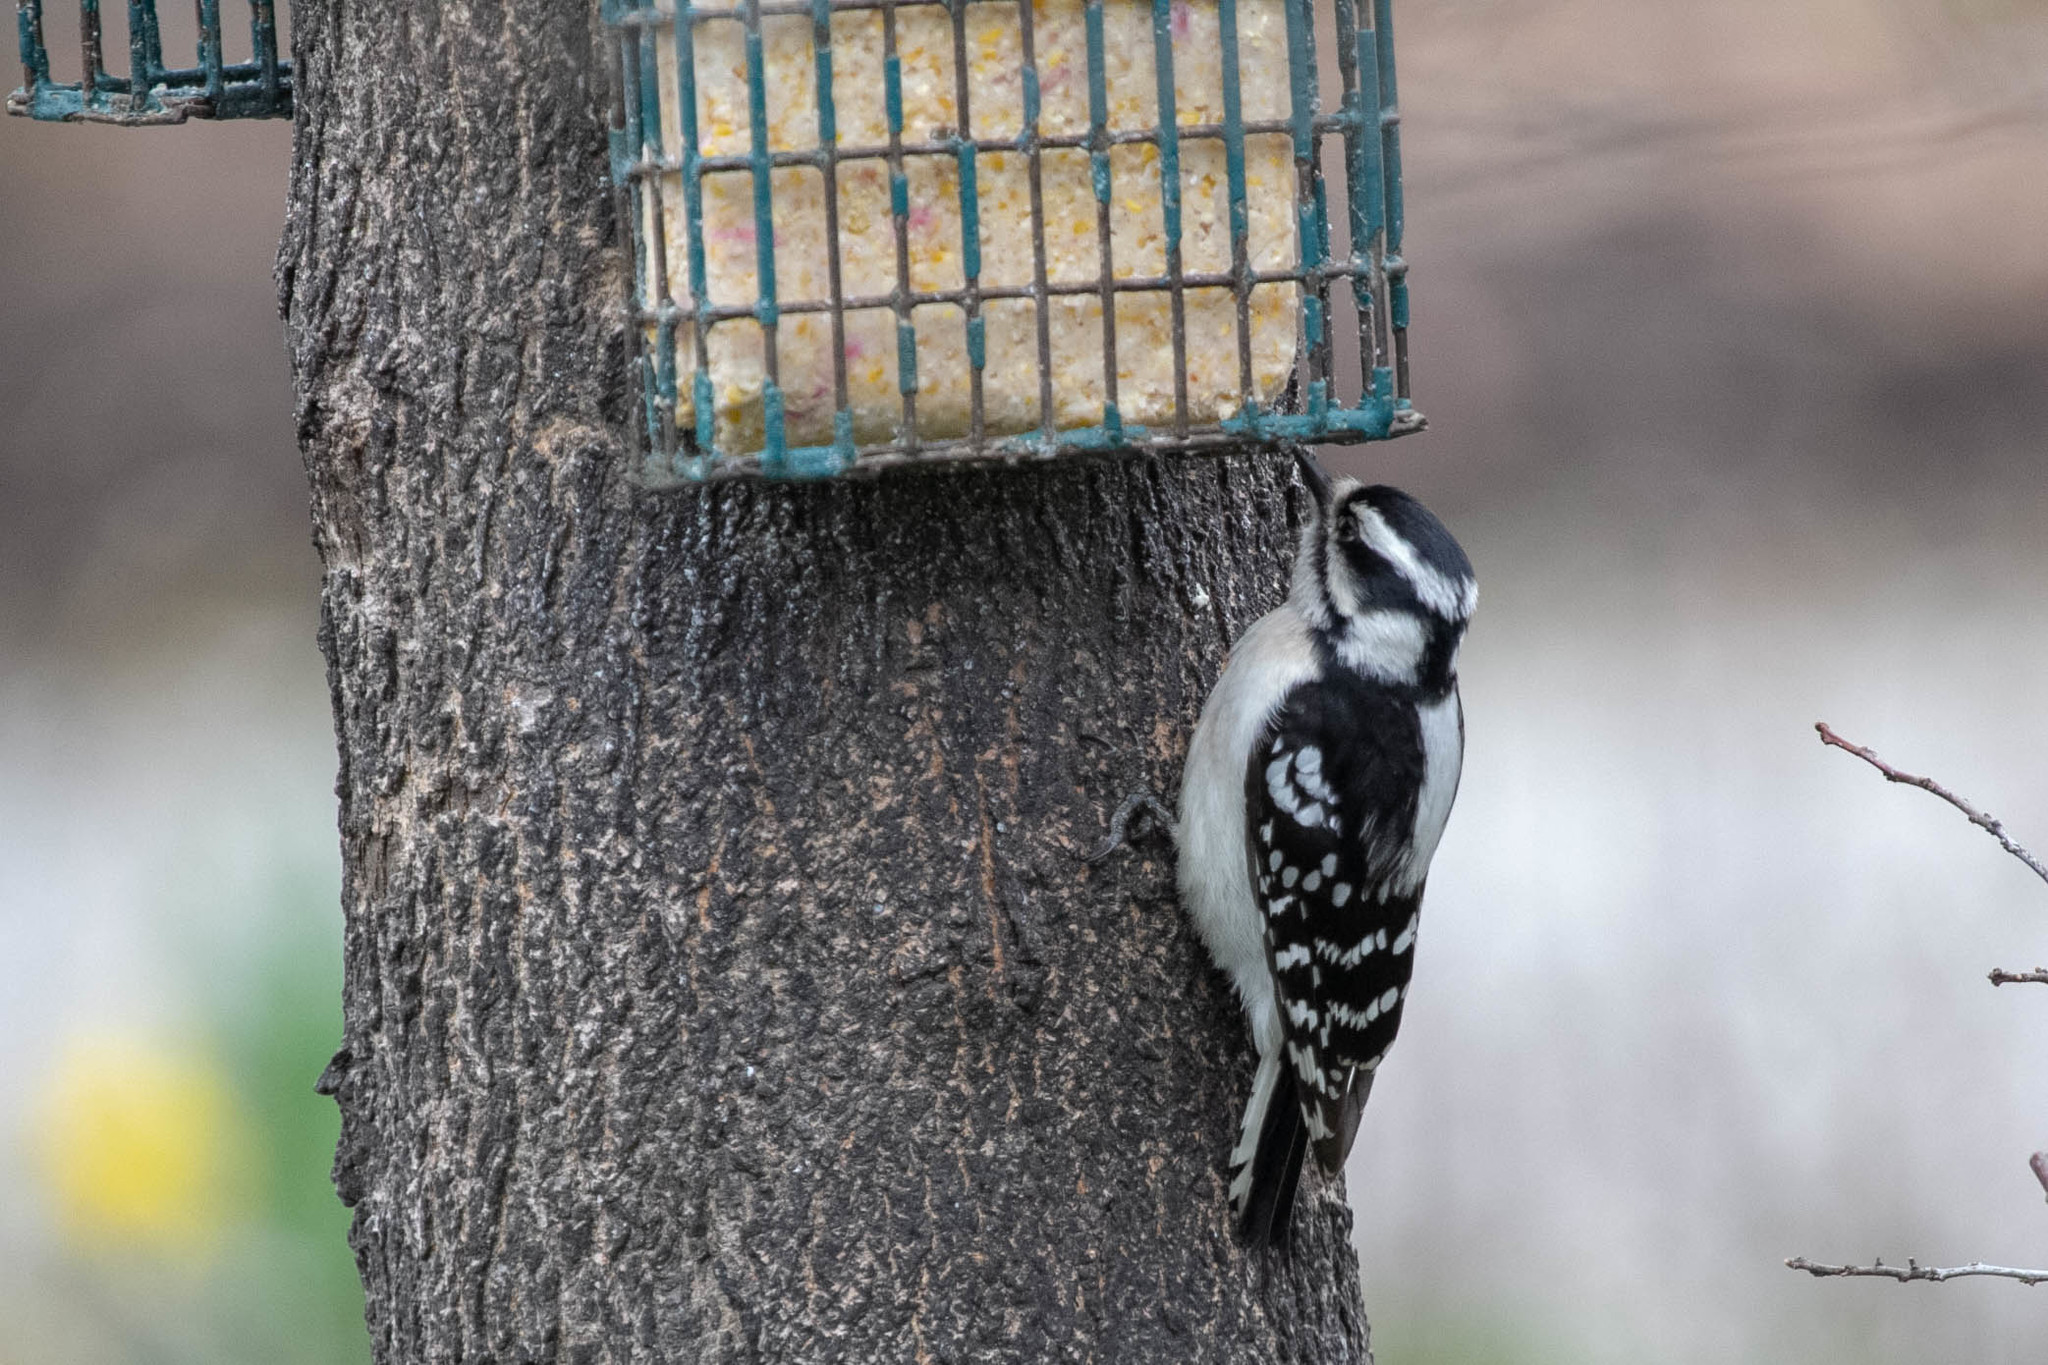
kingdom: Animalia
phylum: Chordata
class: Aves
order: Piciformes
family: Picidae
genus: Dryobates
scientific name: Dryobates pubescens
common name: Downy woodpecker
